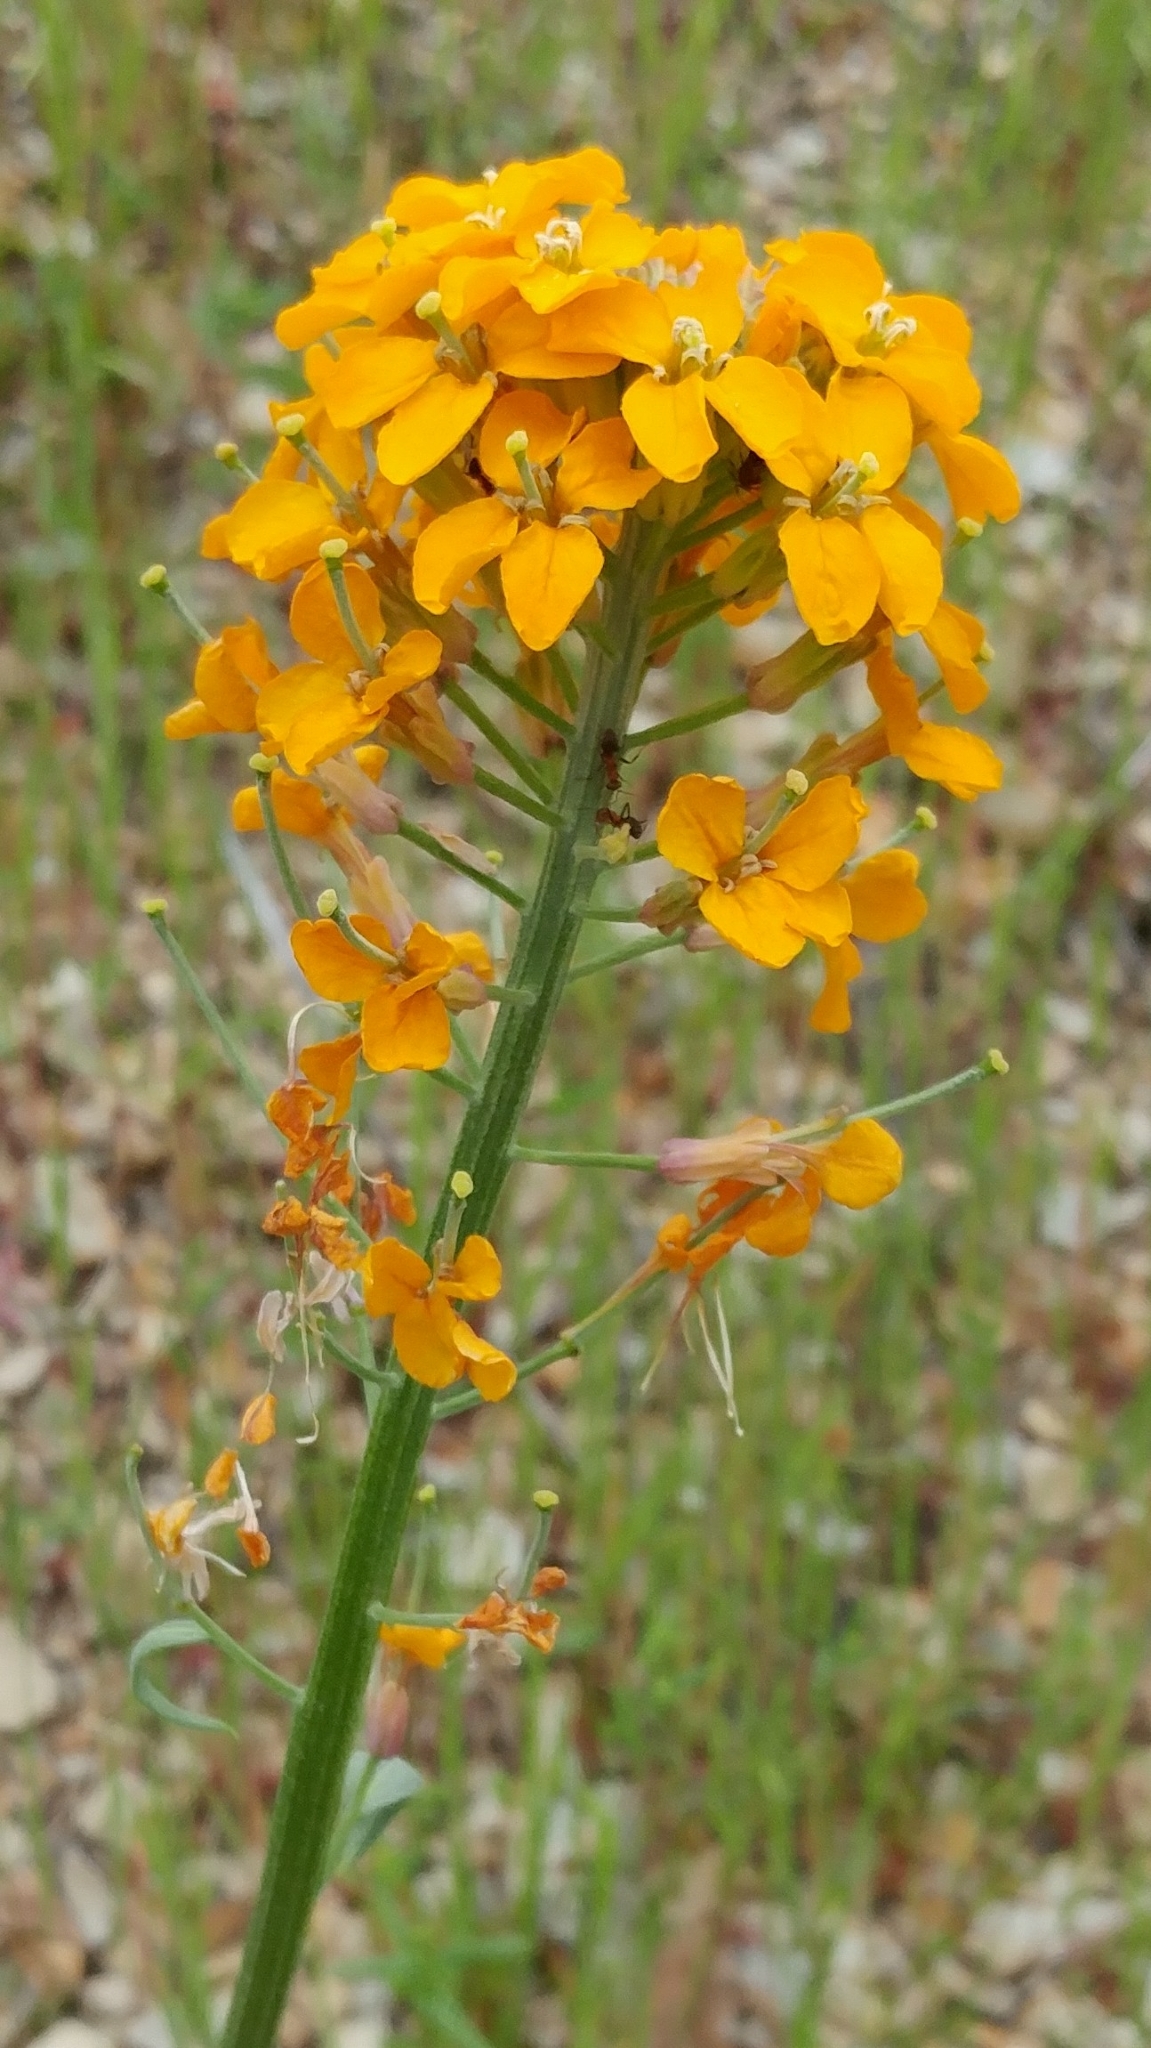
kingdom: Plantae
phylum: Tracheophyta
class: Magnoliopsida
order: Brassicales
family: Brassicaceae
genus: Erysimum
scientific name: Erysimum capitatum
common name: Western wallflower
